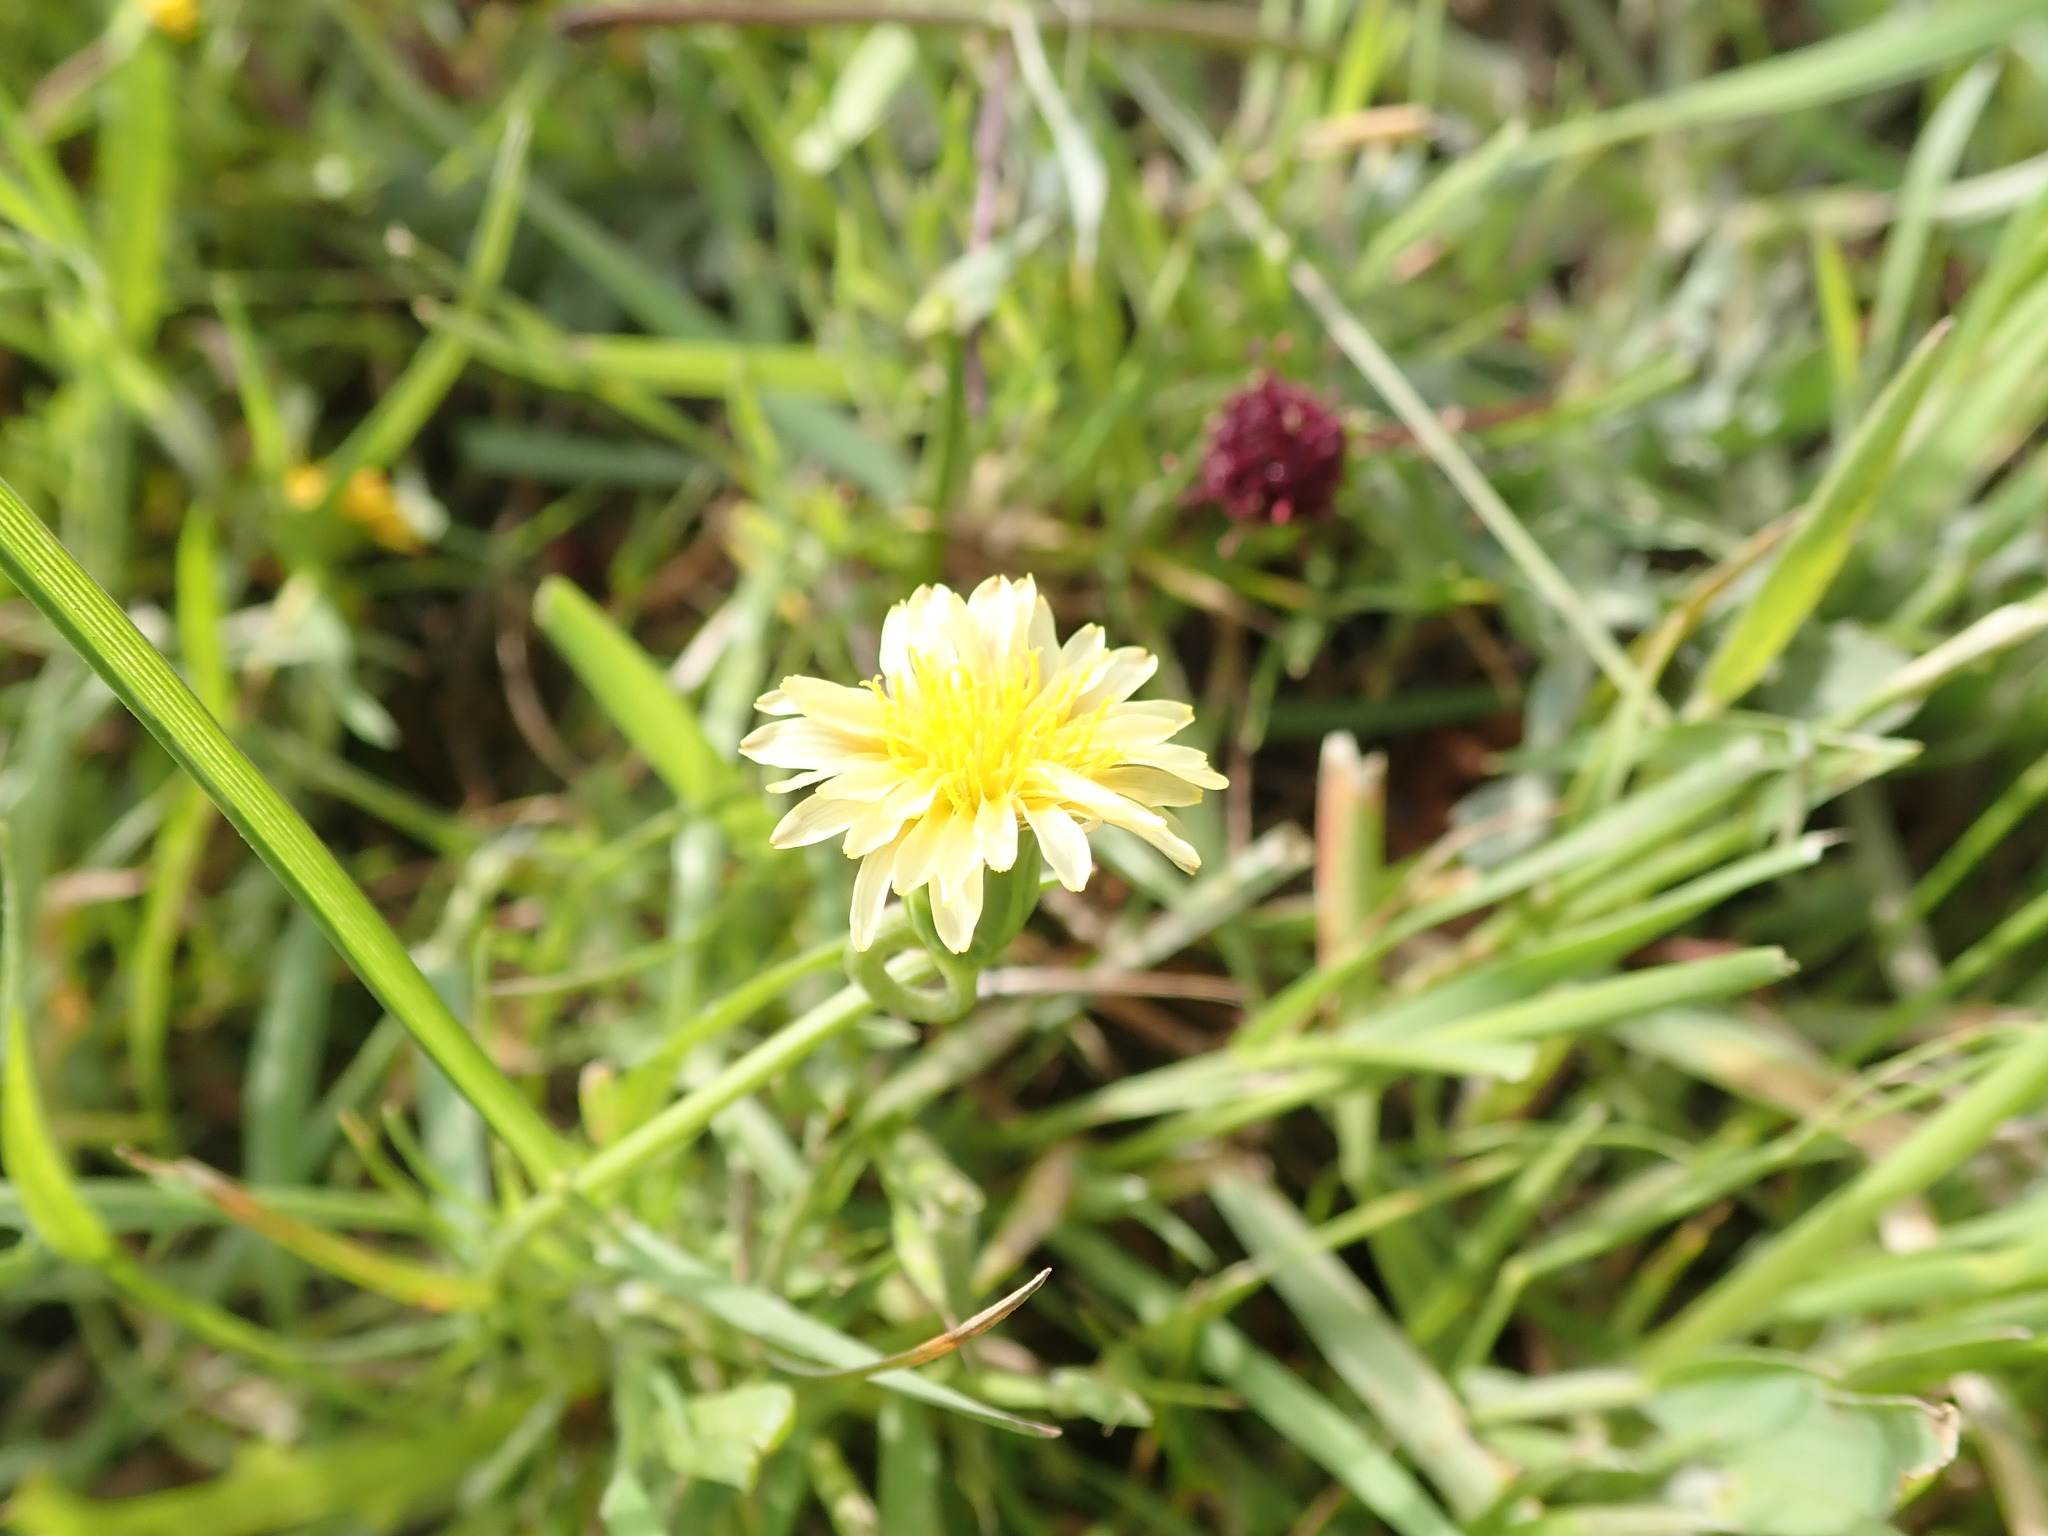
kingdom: Plantae
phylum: Tracheophyta
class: Magnoliopsida
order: Asterales
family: Asteraceae
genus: Microseris
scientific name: Microseris douglasii
